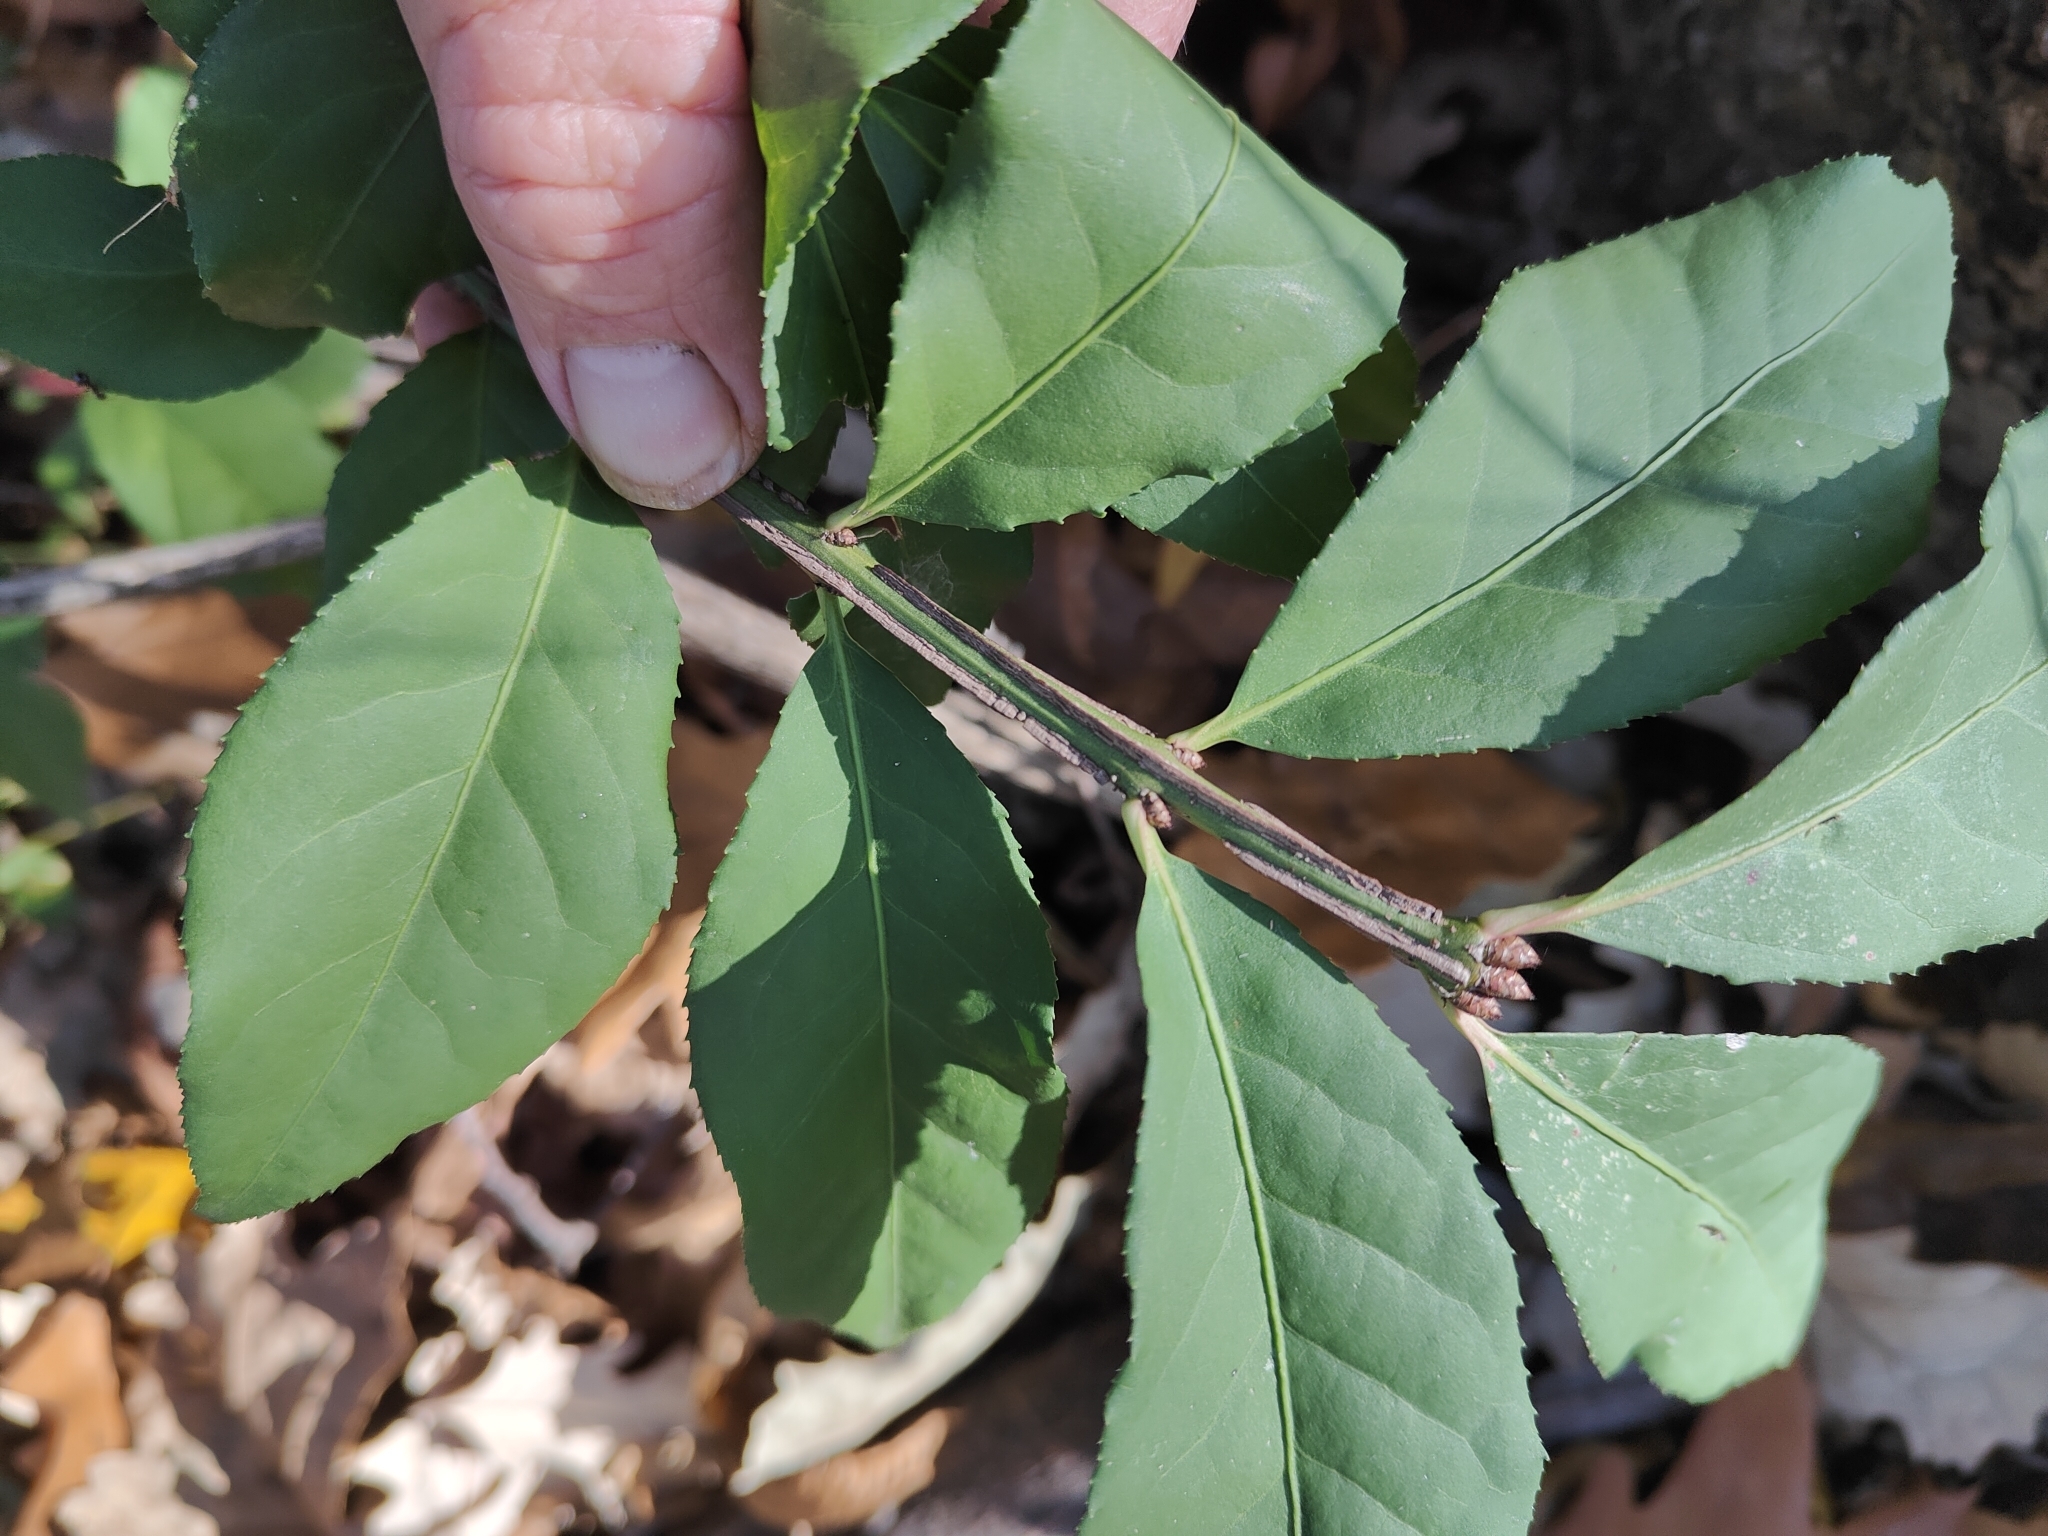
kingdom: Plantae
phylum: Tracheophyta
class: Magnoliopsida
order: Celastrales
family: Celastraceae
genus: Euonymus
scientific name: Euonymus alatus
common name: Winged euonymus
